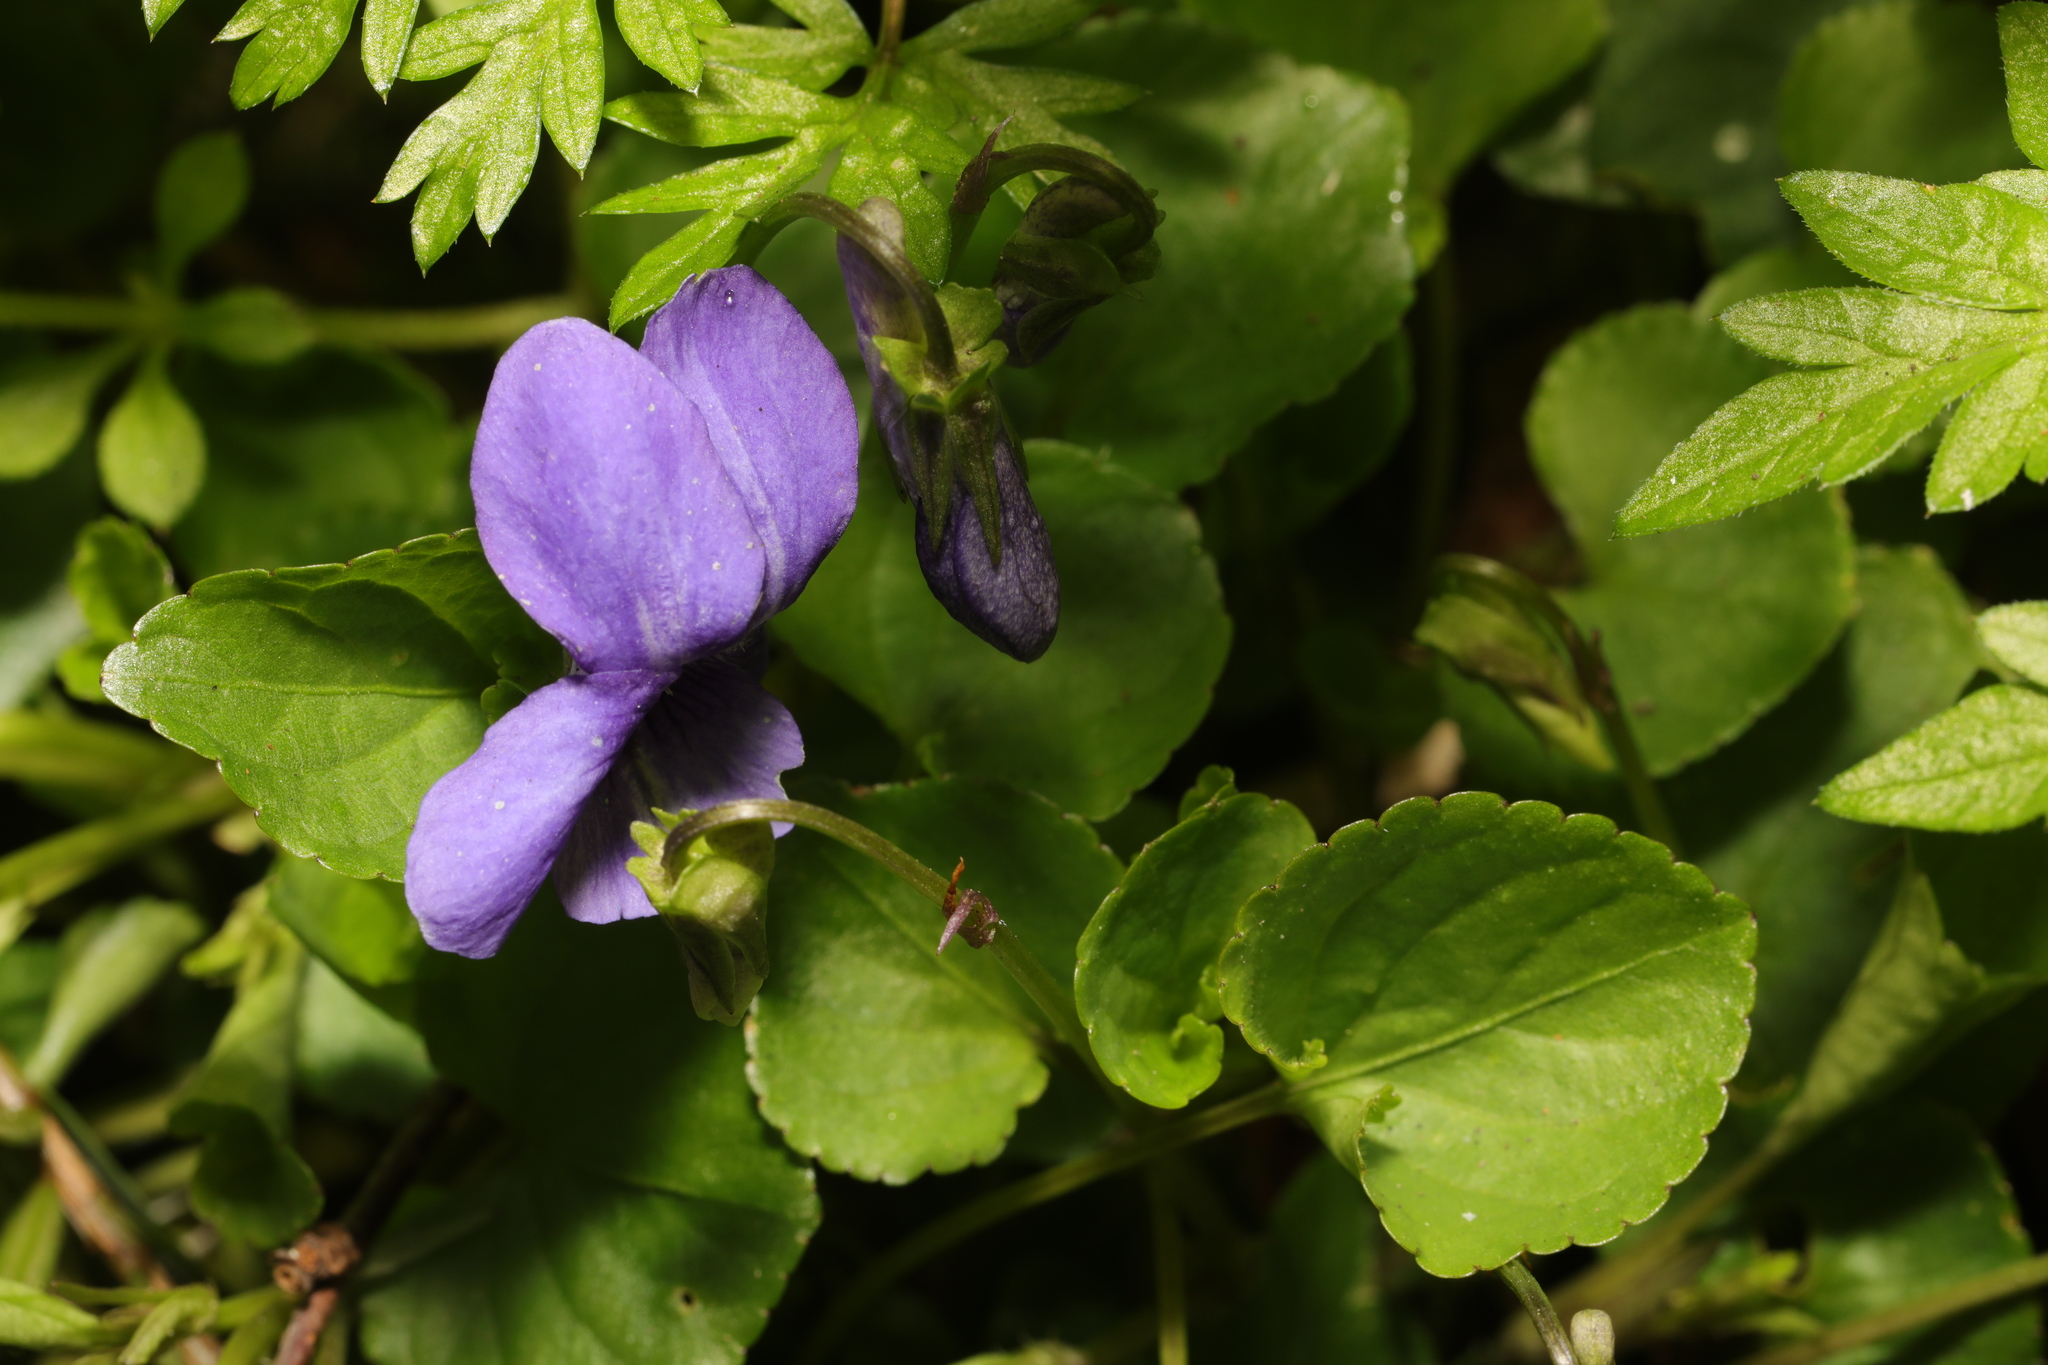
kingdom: Plantae
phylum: Tracheophyta
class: Magnoliopsida
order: Malpighiales
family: Violaceae
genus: Viola
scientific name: Viola riviniana
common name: Common dog-violet
